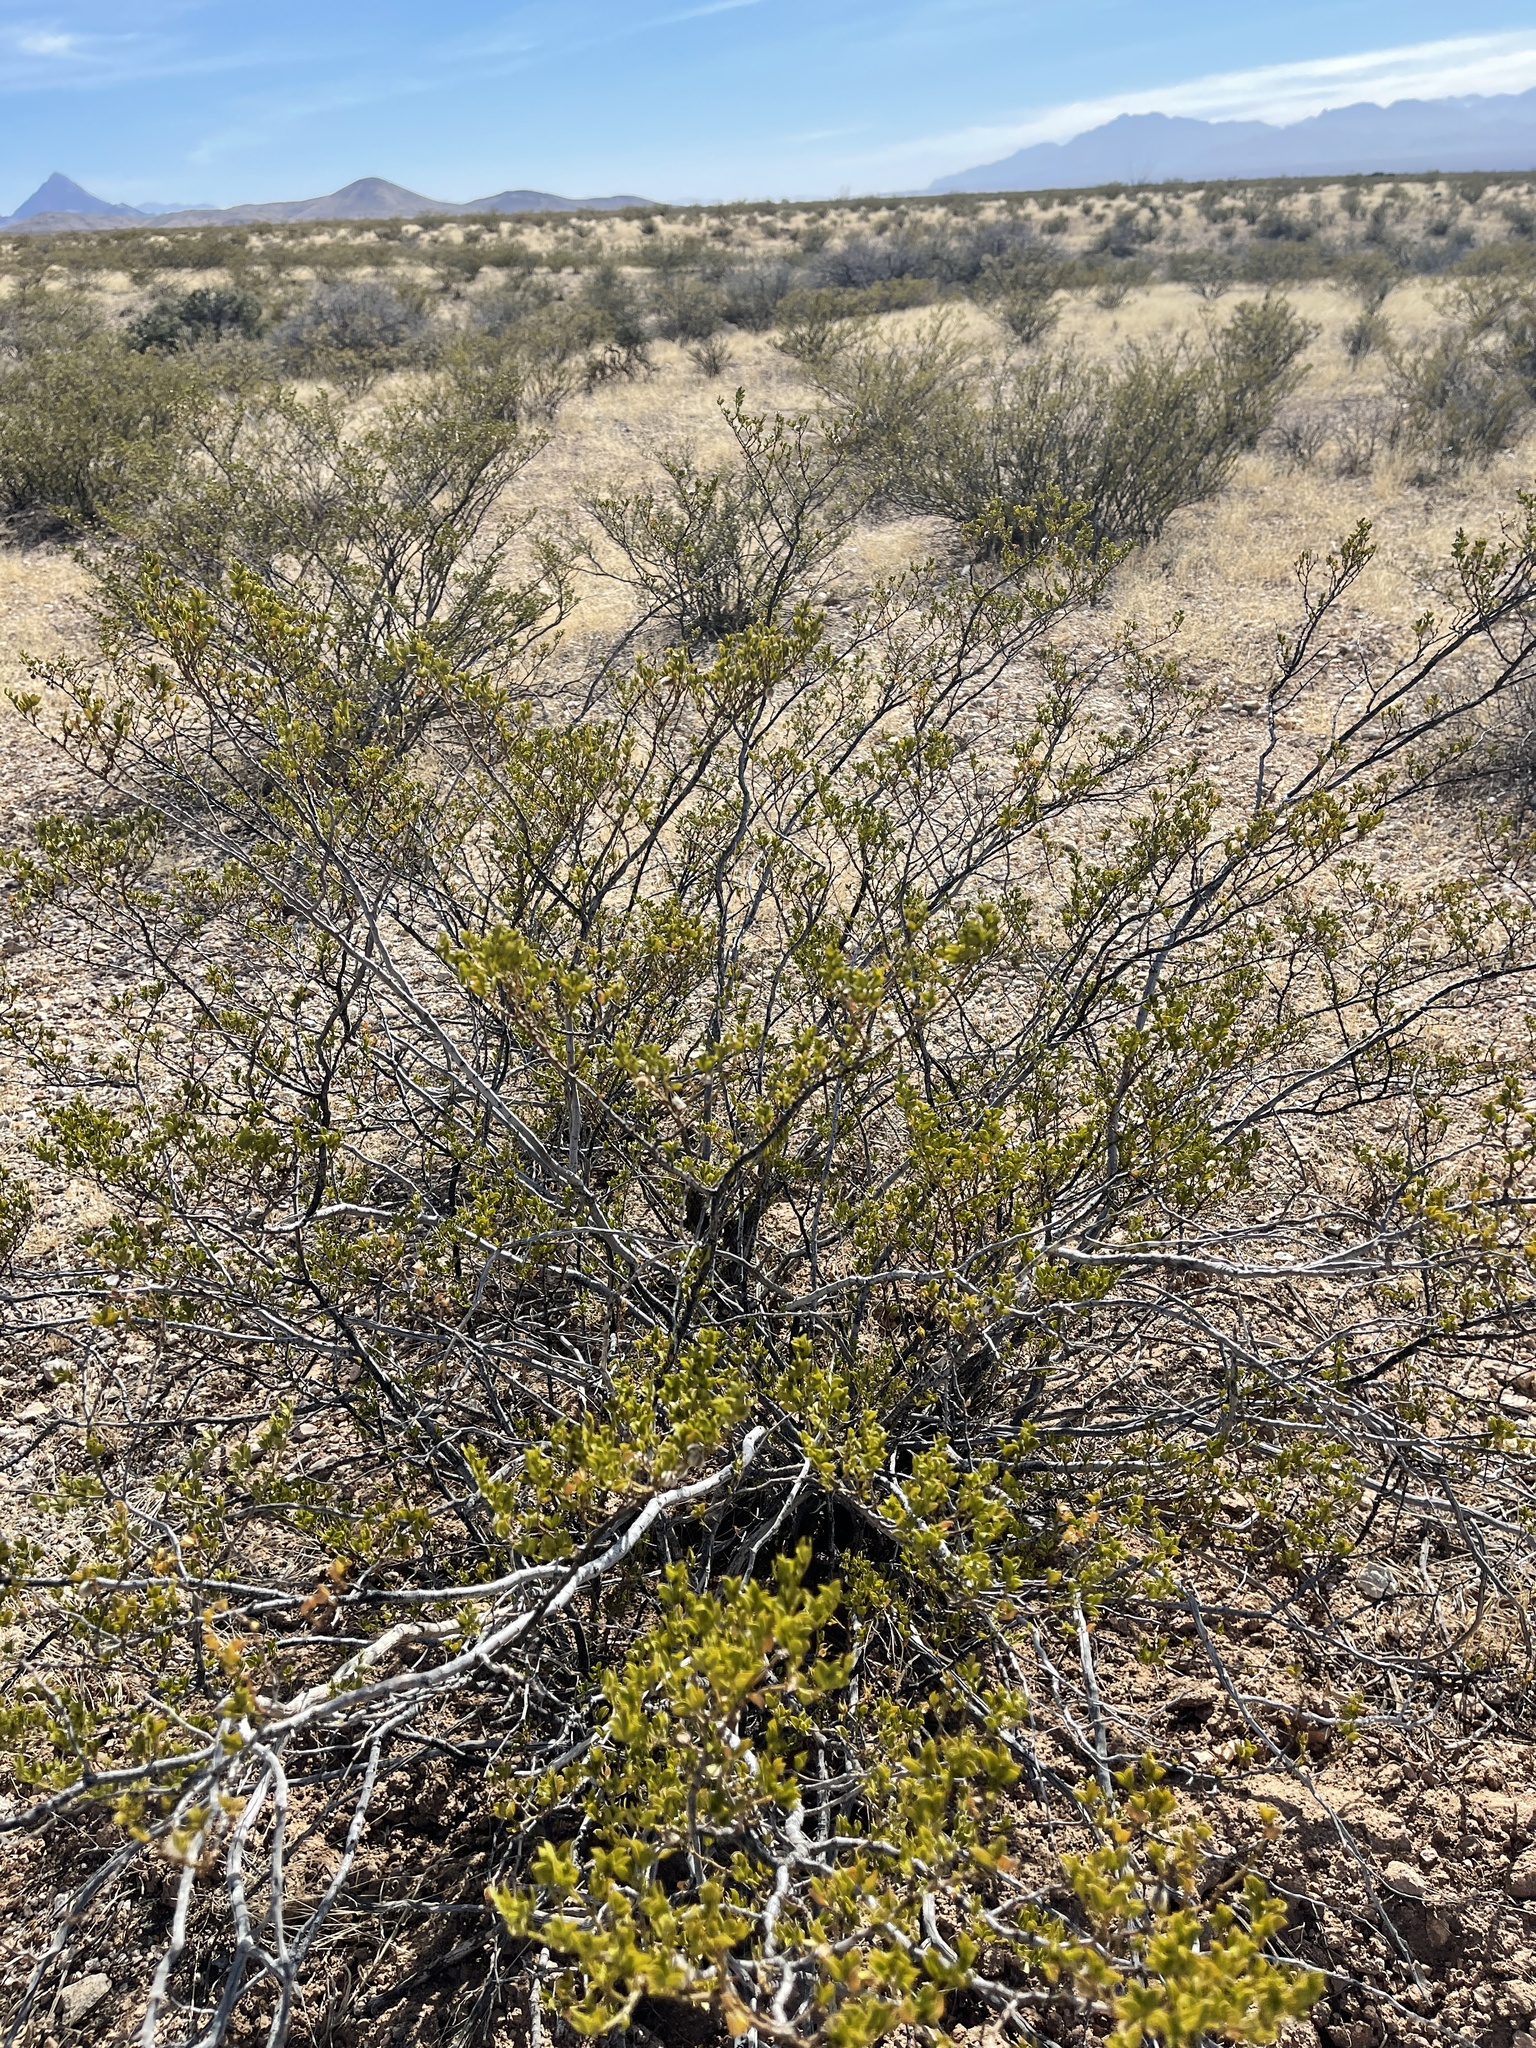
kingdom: Plantae
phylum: Tracheophyta
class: Magnoliopsida
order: Zygophyllales
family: Zygophyllaceae
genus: Larrea
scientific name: Larrea tridentata
